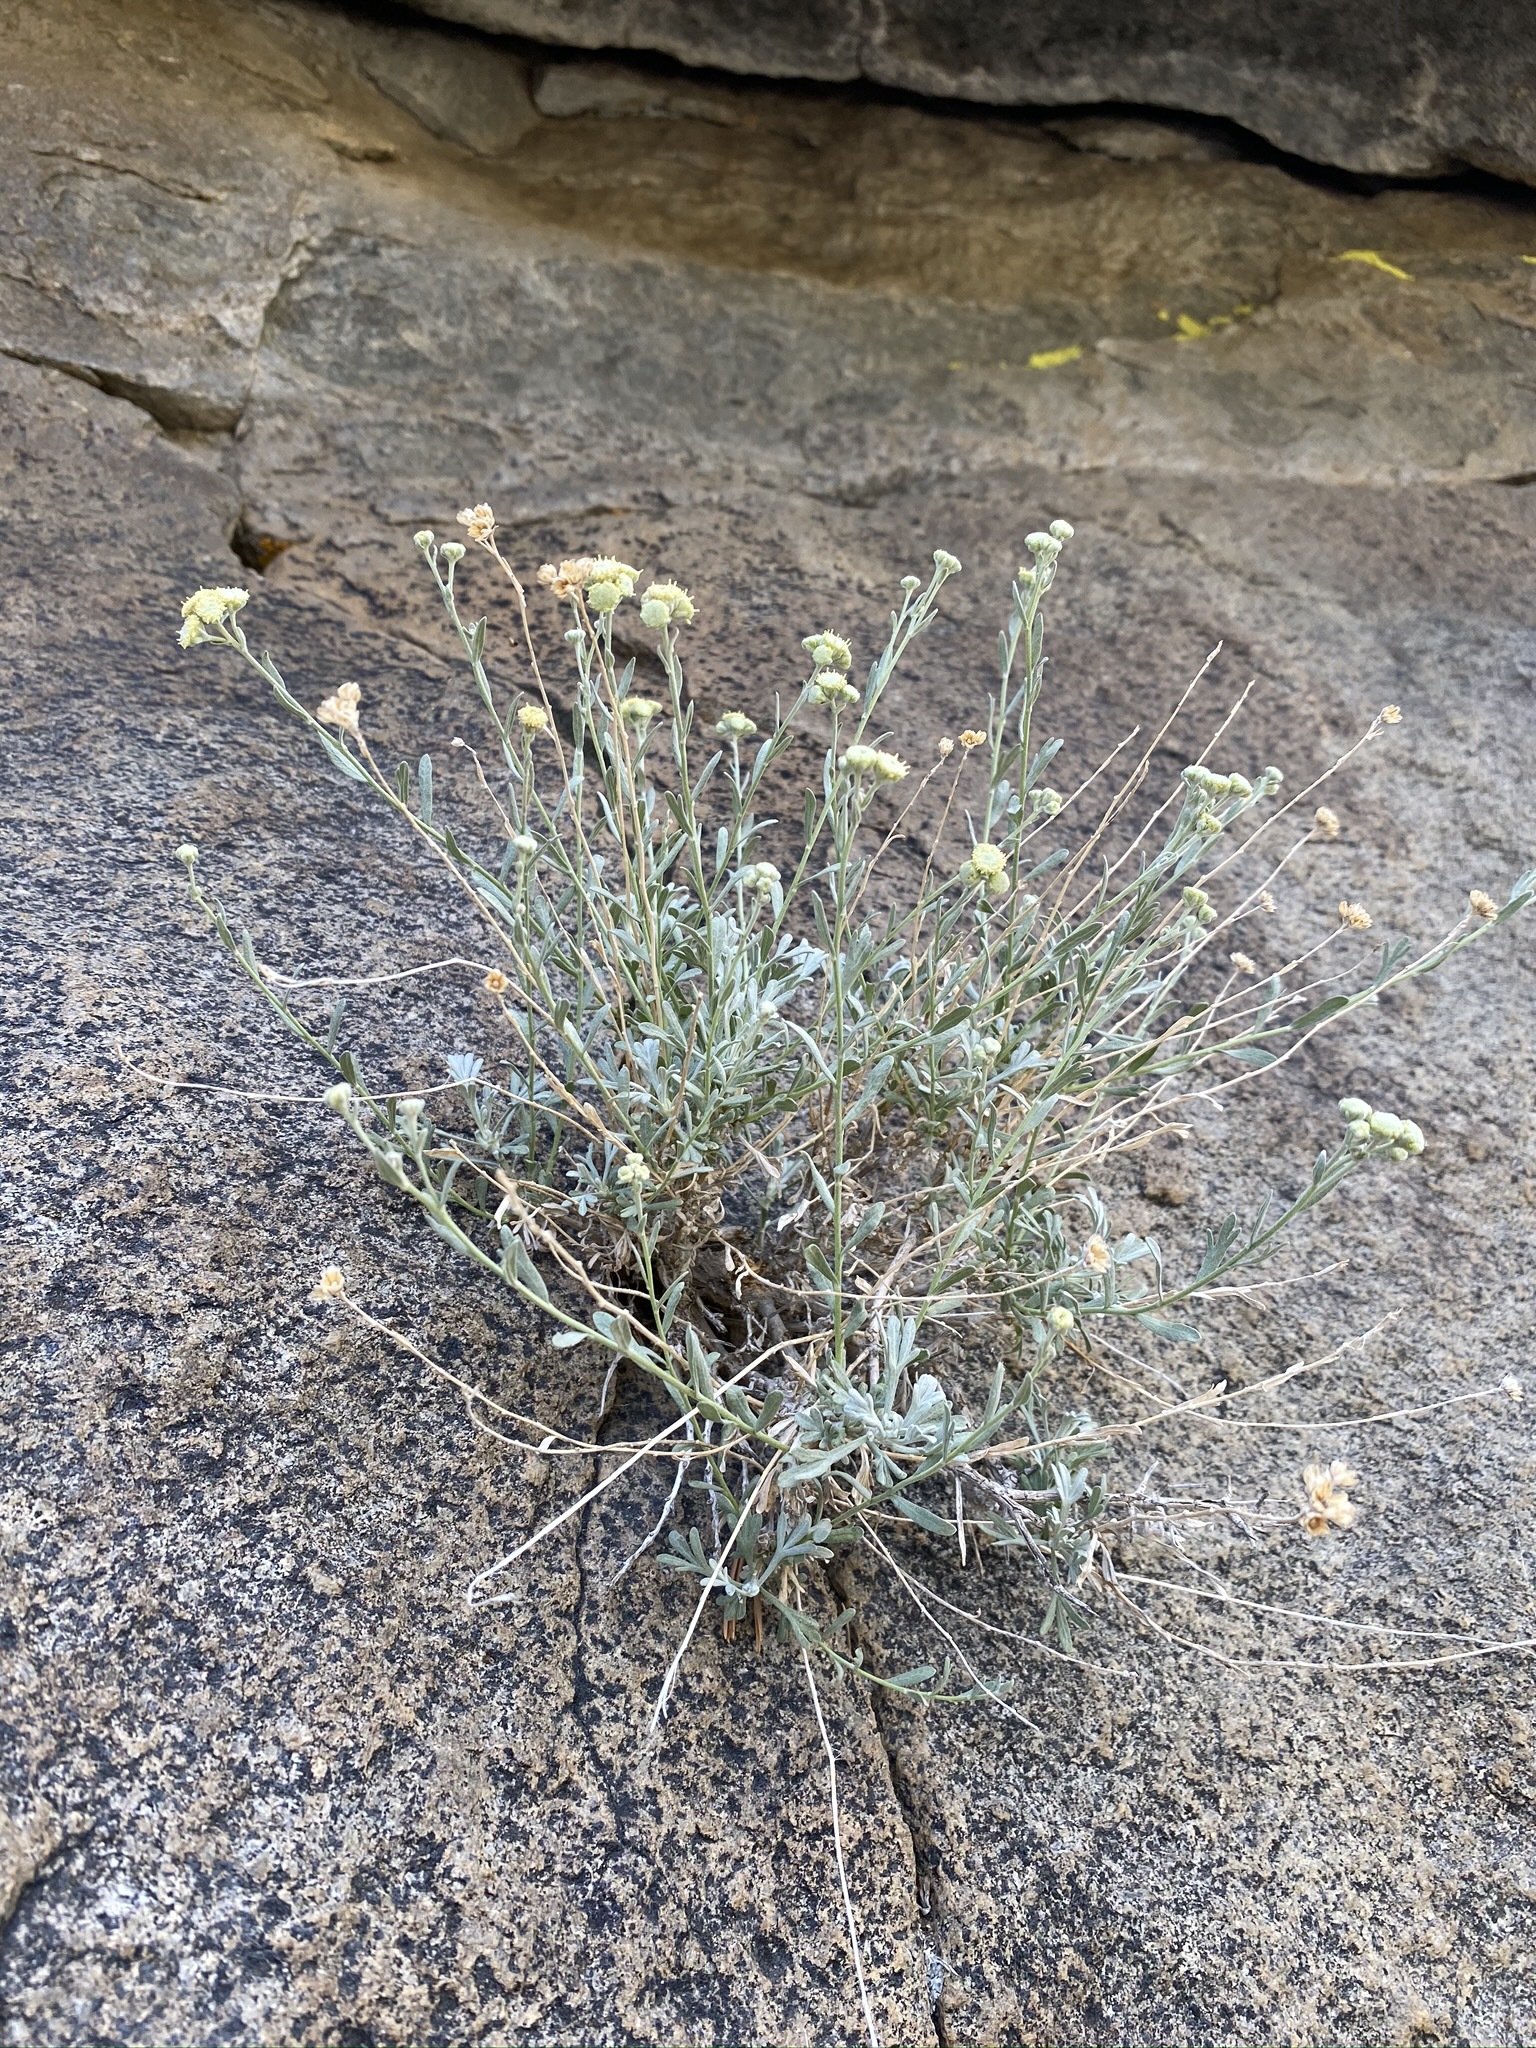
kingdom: Plantae
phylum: Tracheophyta
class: Magnoliopsida
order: Asterales
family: Asteraceae
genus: Artemisia
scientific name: Artemisia albicans
